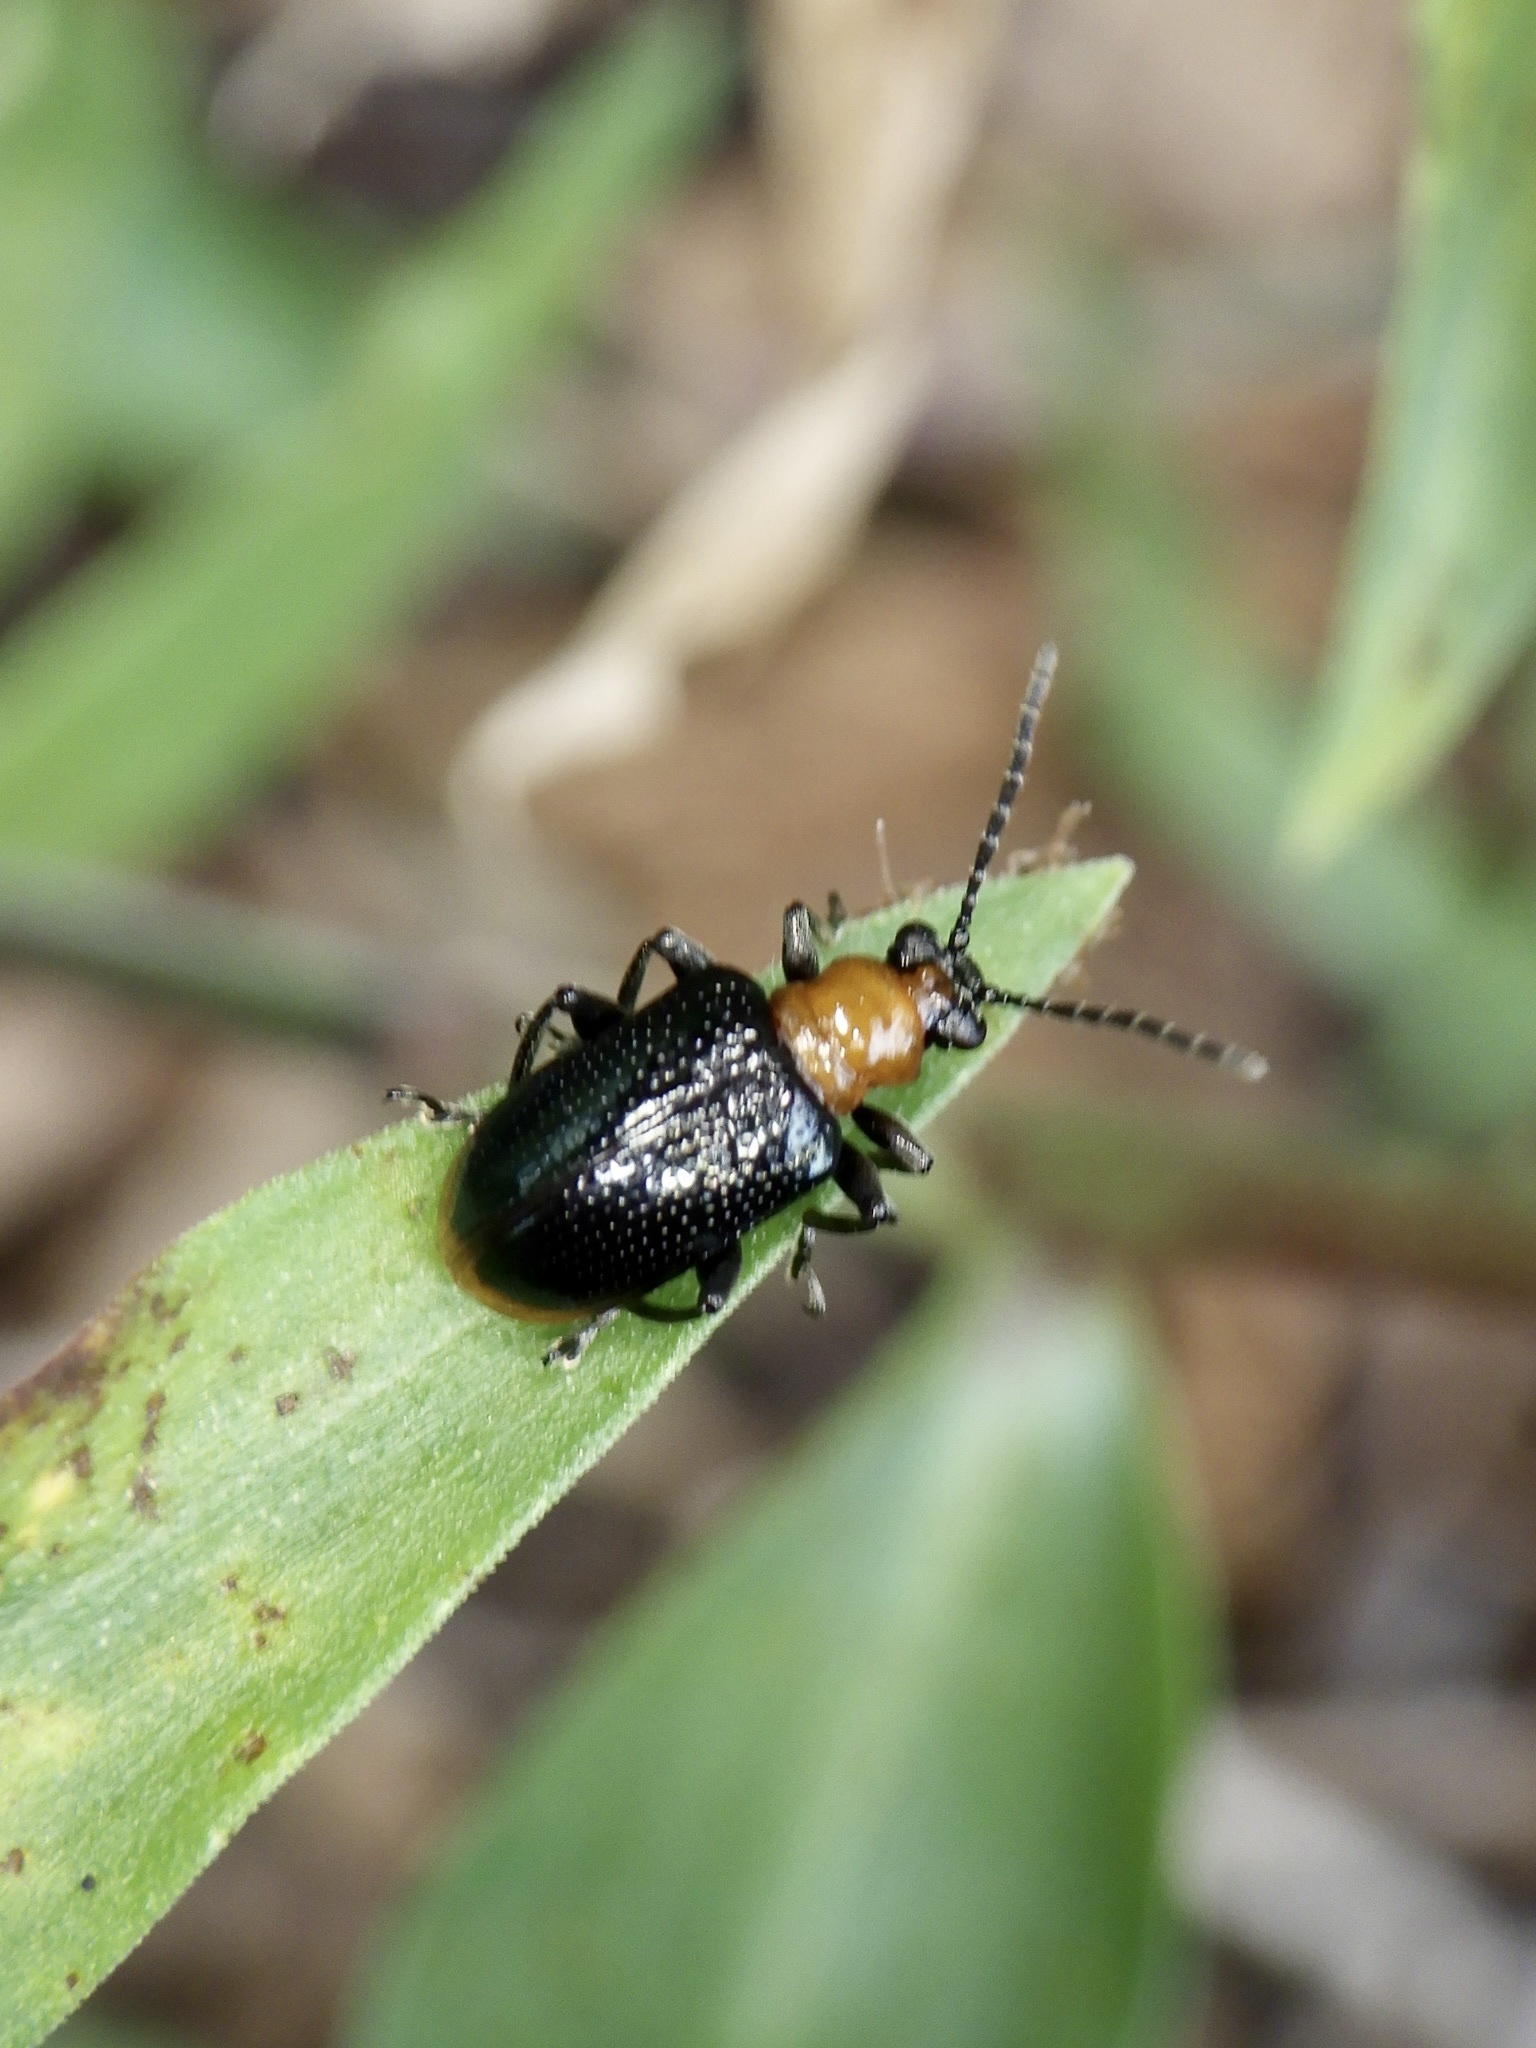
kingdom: Animalia
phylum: Arthropoda
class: Insecta
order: Coleoptera
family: Chrysomelidae
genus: Lema
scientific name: Lema diversa
